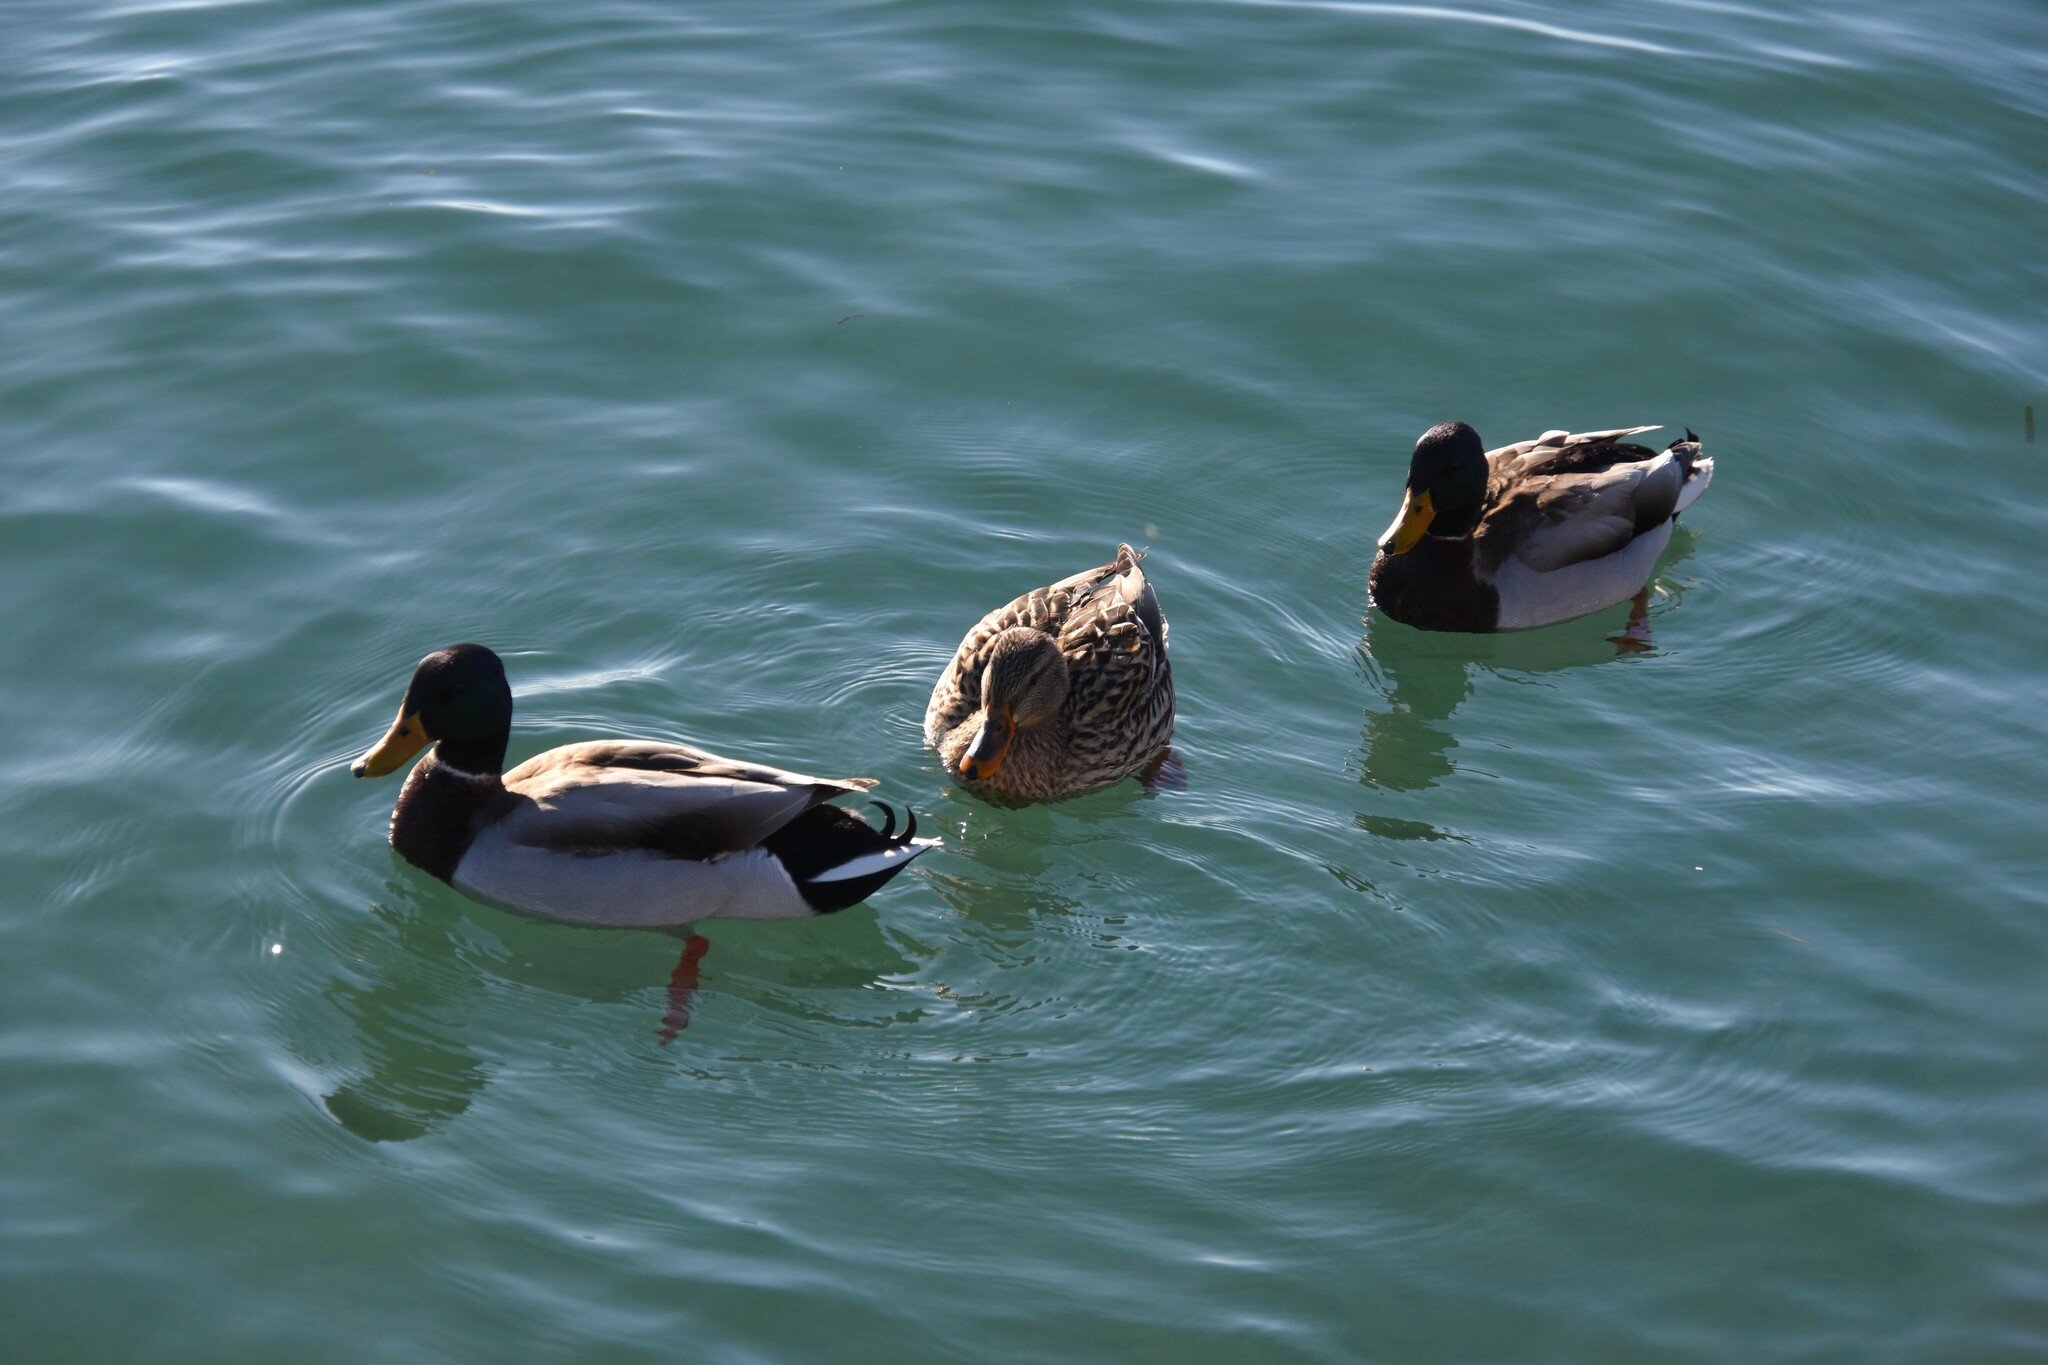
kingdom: Animalia
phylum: Chordata
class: Aves
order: Anseriformes
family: Anatidae
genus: Anas
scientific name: Anas platyrhynchos
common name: Mallard
